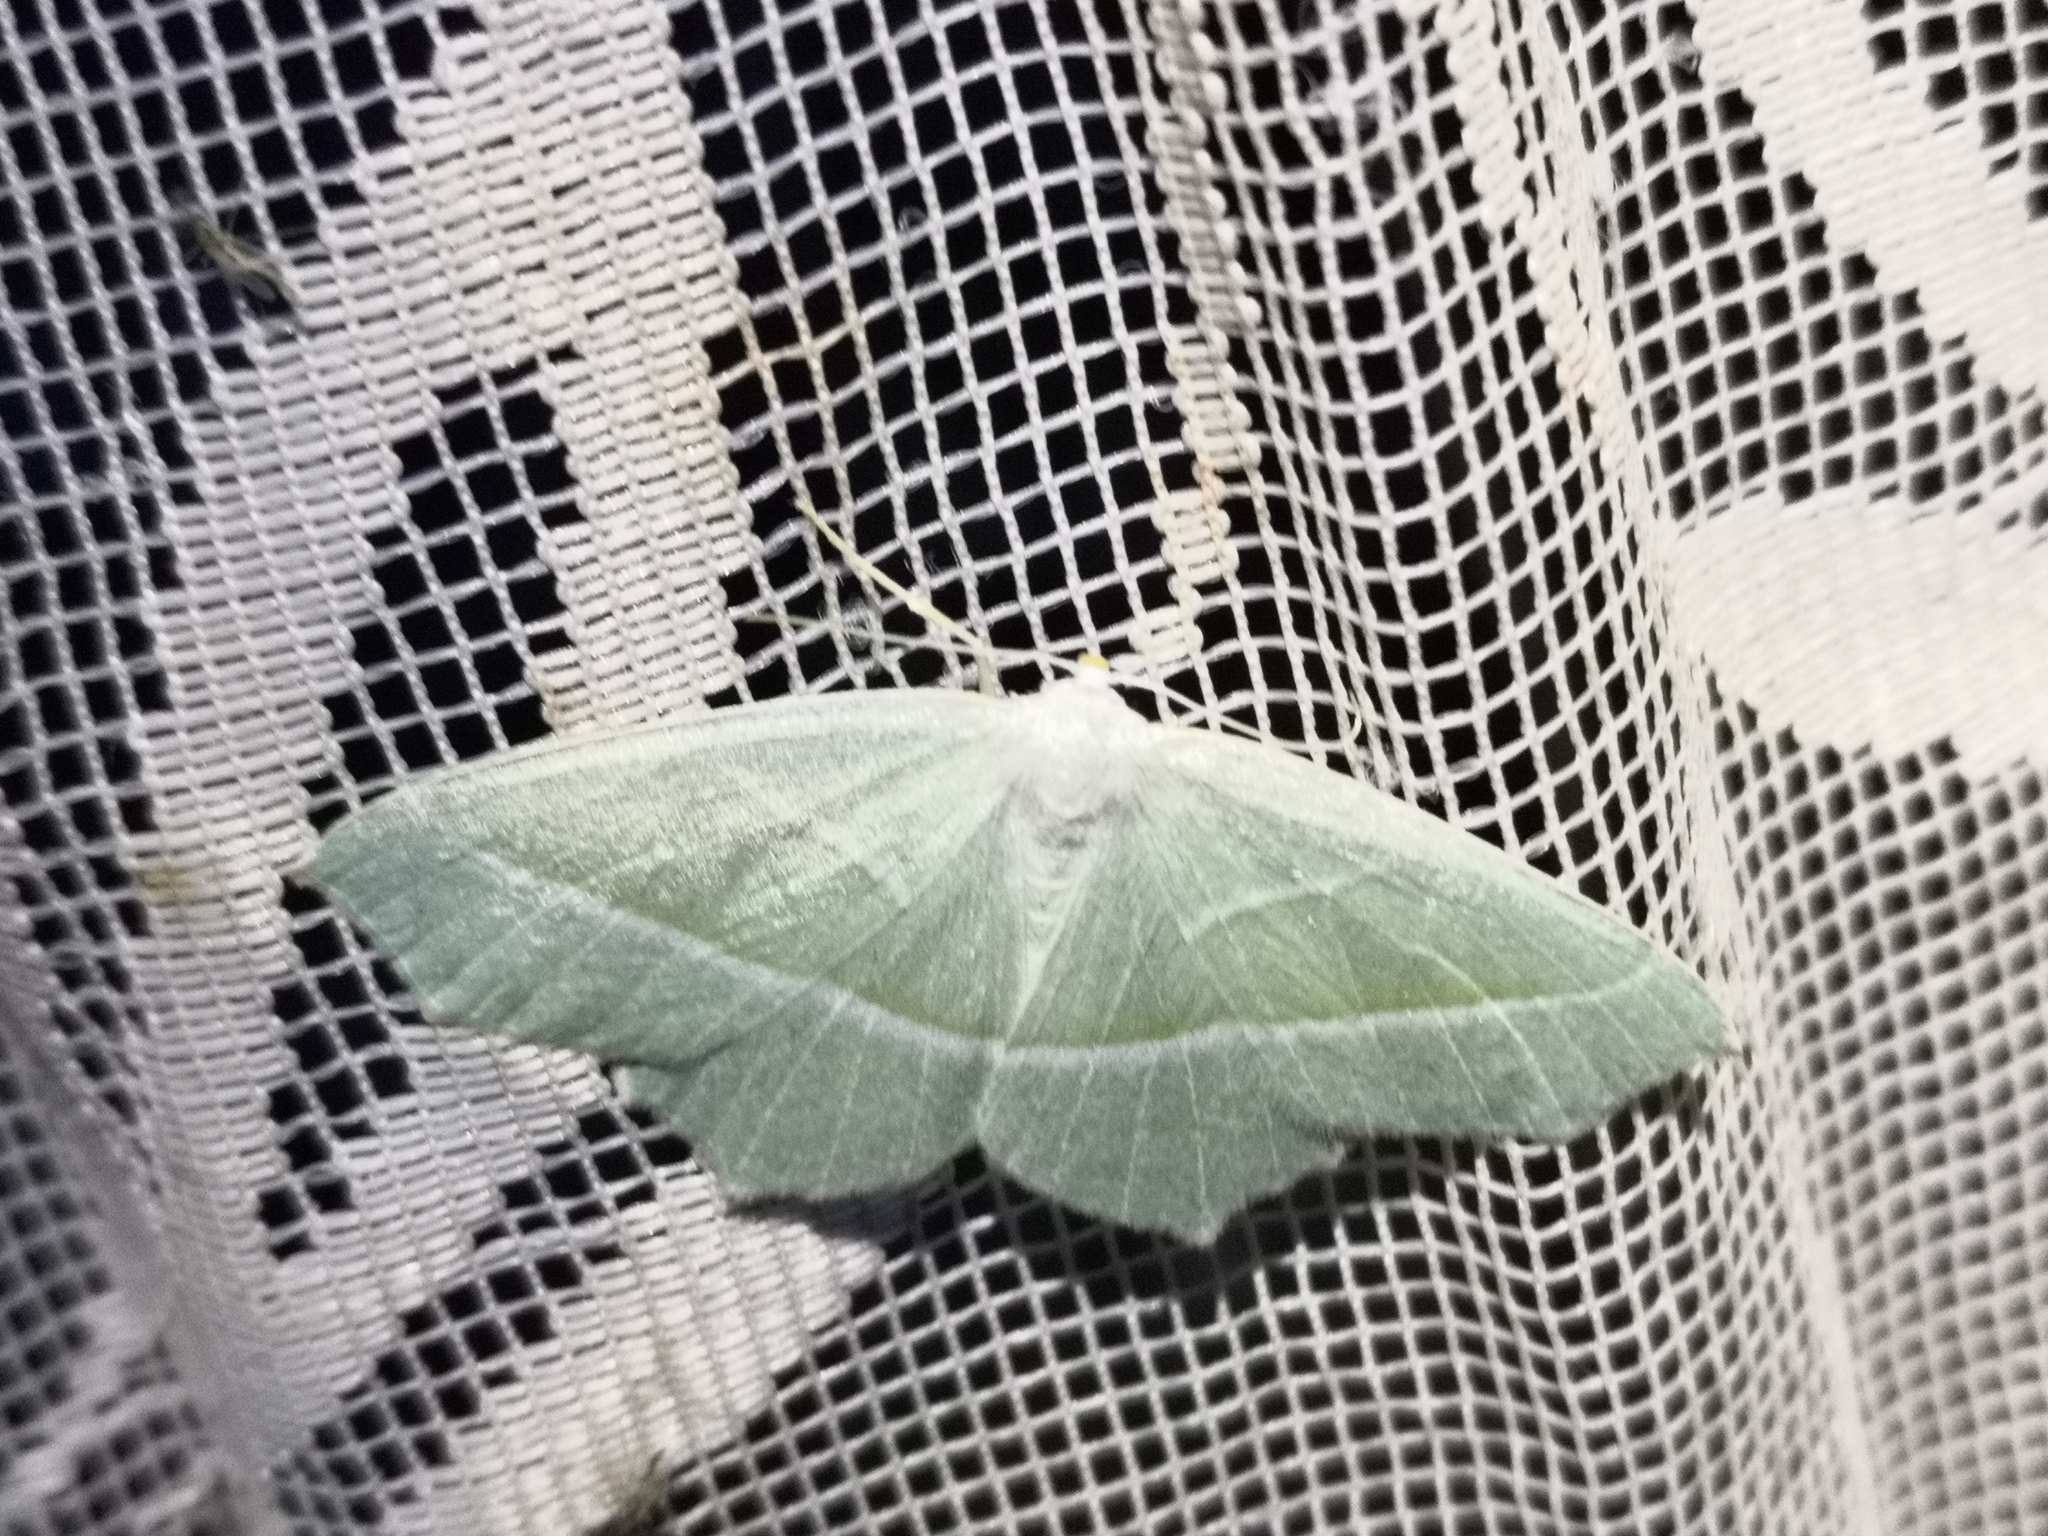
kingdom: Animalia
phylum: Arthropoda
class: Insecta
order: Lepidoptera
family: Geometridae
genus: Campaea
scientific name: Campaea margaritaria
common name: Light emerald
